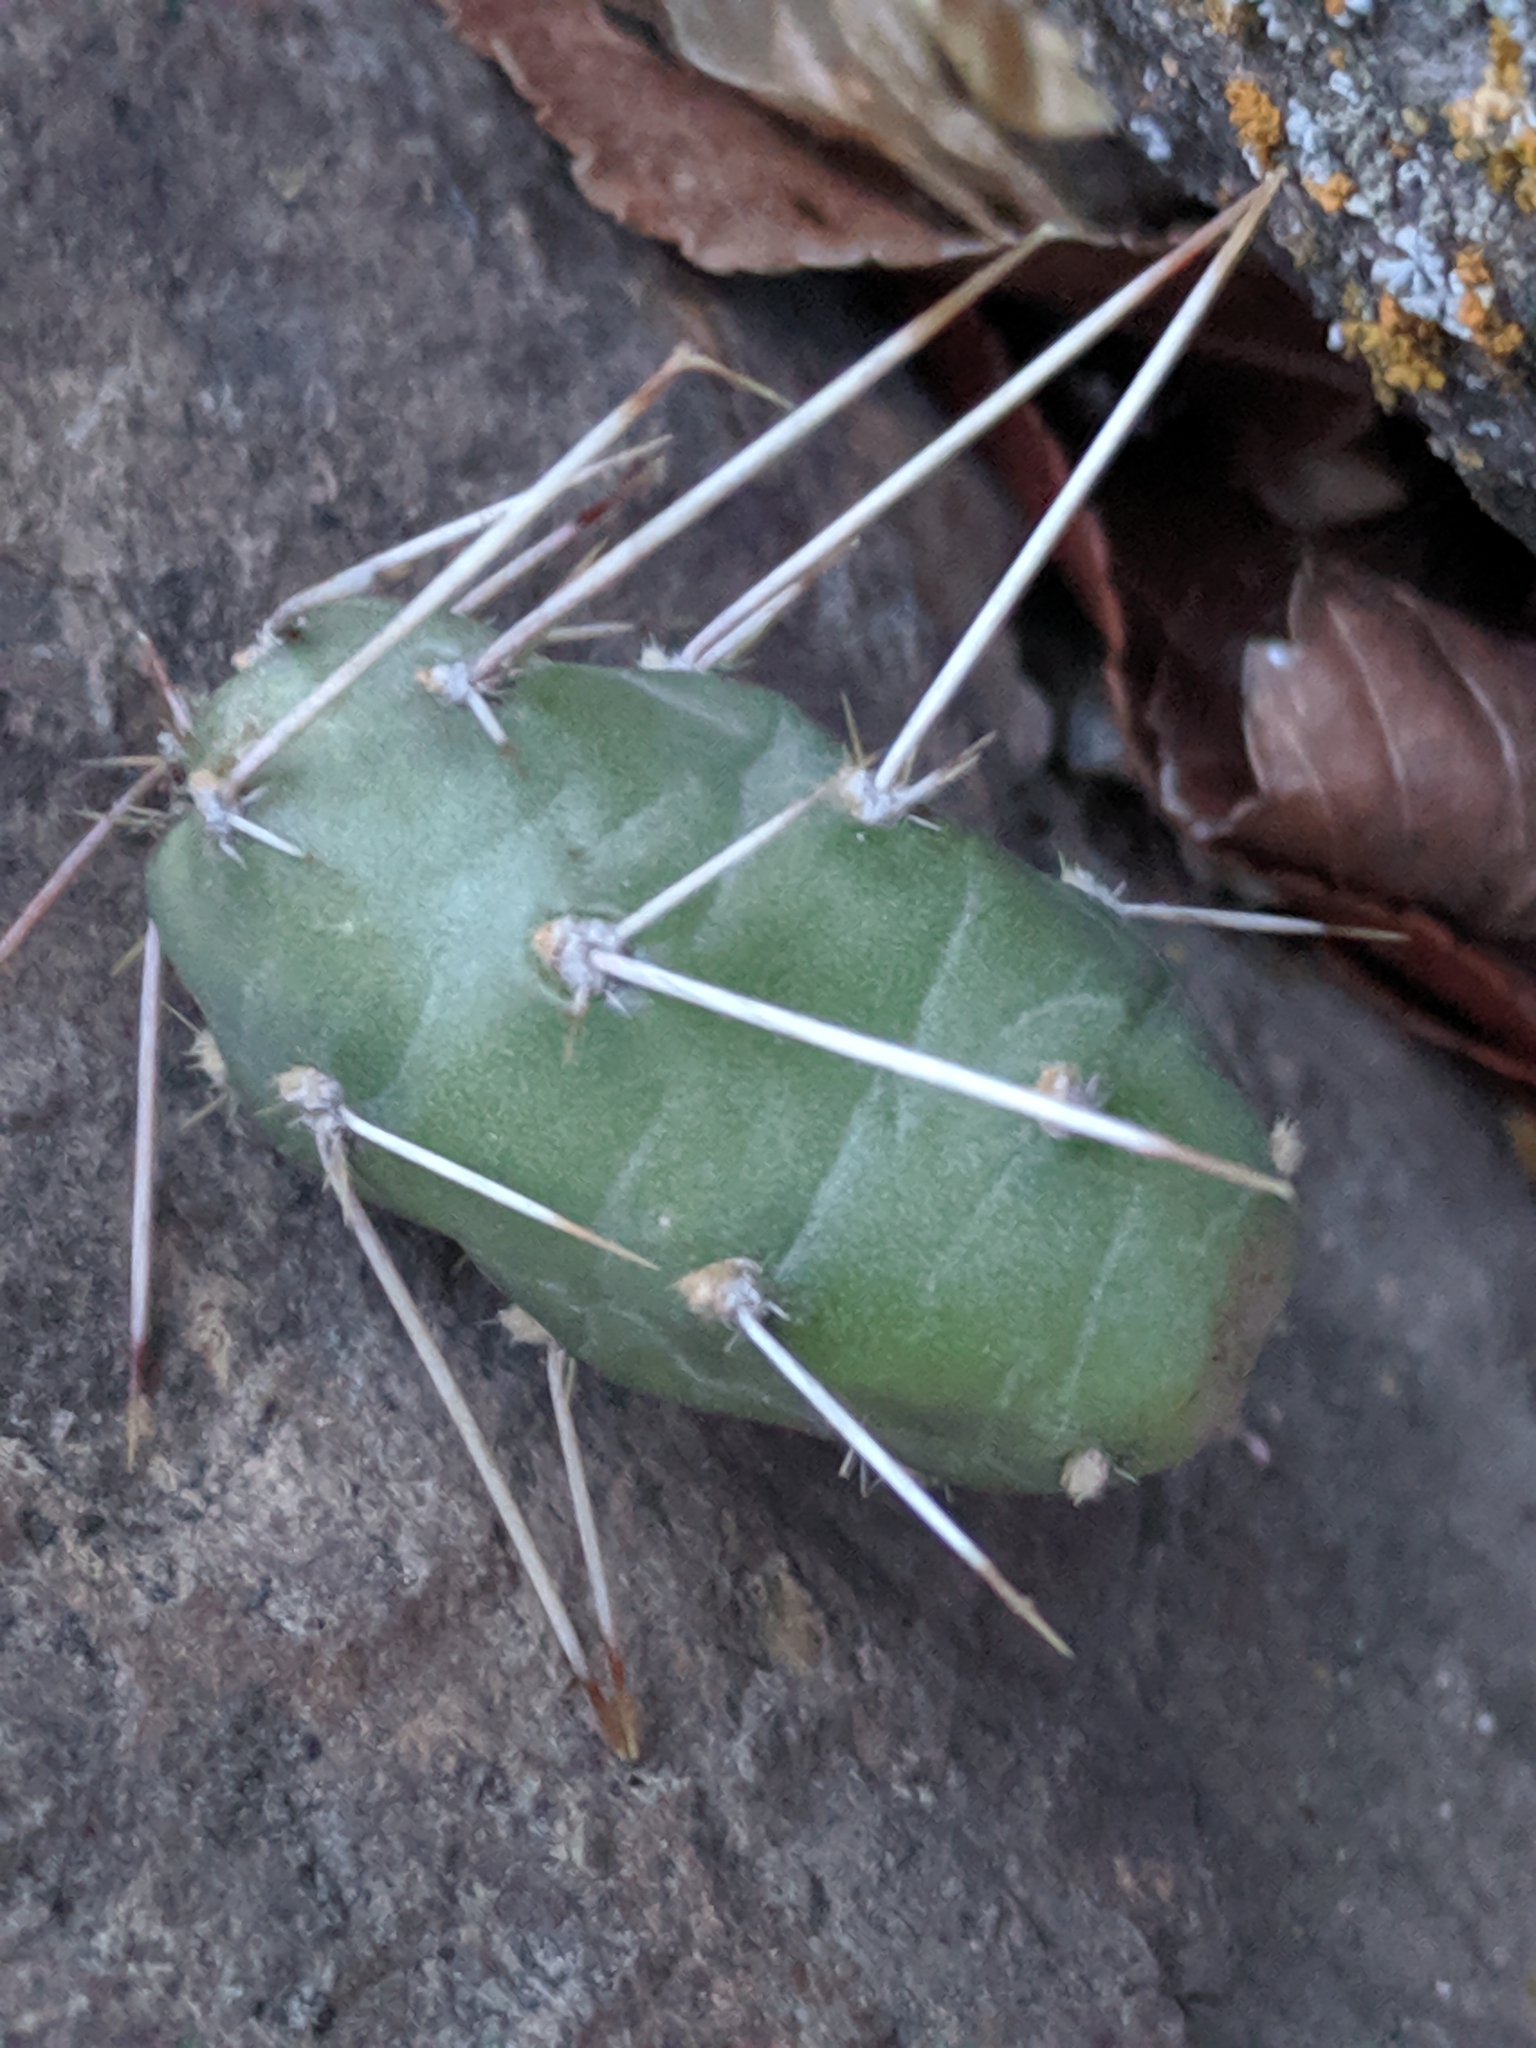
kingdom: Plantae
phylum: Tracheophyta
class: Magnoliopsida
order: Caryophyllales
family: Cactaceae
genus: Opuntia
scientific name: Opuntia fragilis
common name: Brittle cactus
